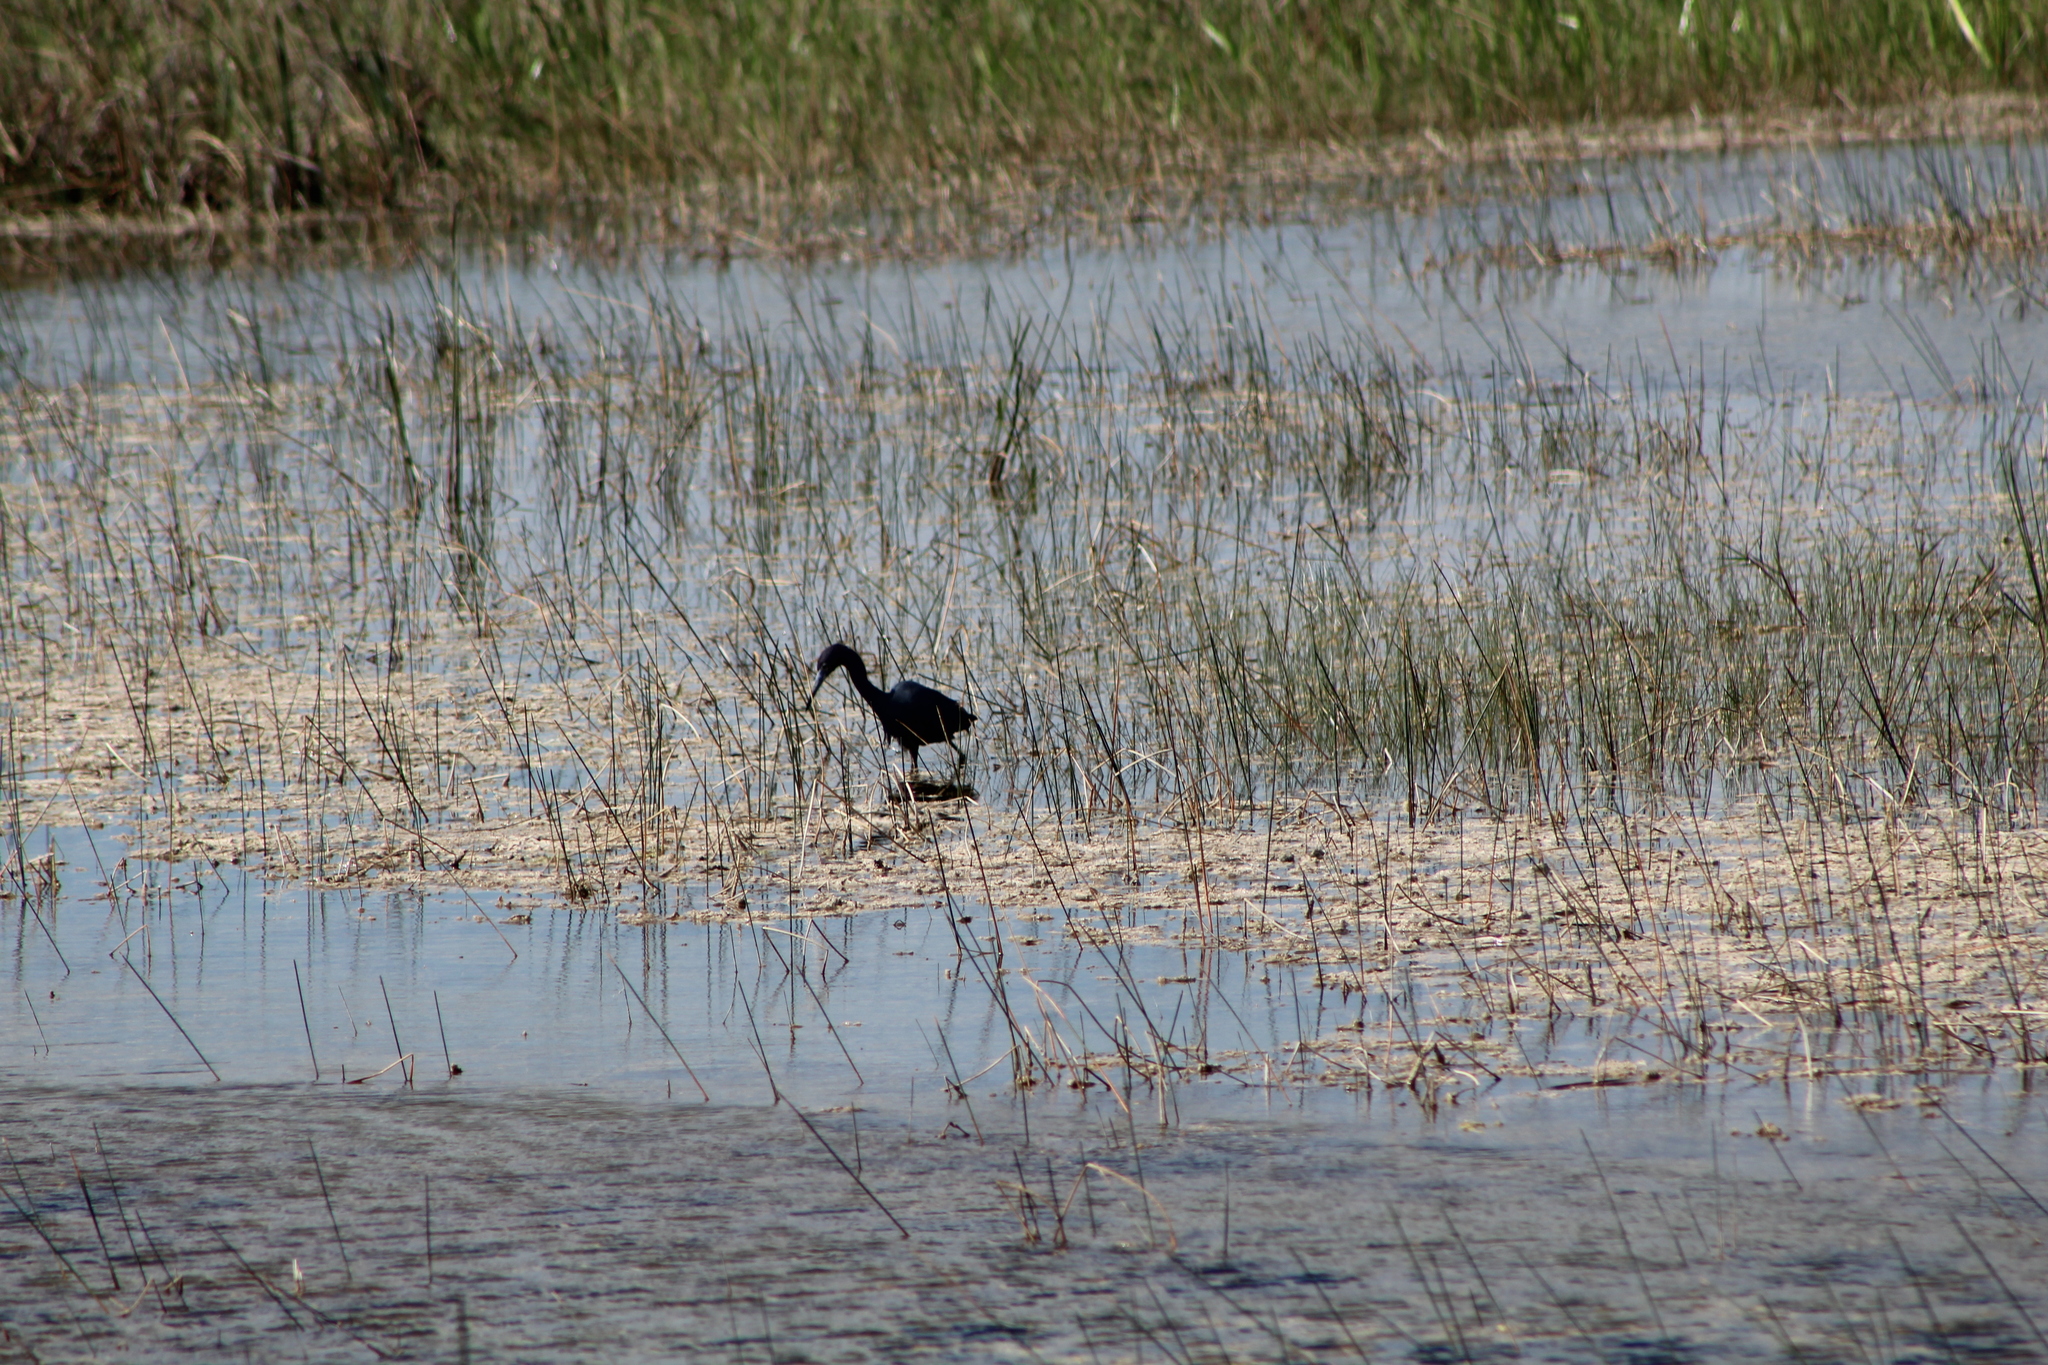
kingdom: Animalia
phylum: Chordata
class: Aves
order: Pelecaniformes
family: Ardeidae
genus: Egretta
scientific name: Egretta caerulea
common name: Little blue heron
